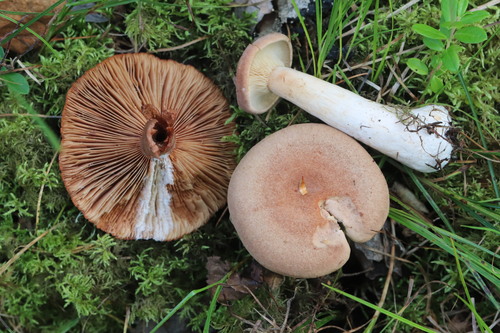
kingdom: Fungi
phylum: Basidiomycota
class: Agaricomycetes
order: Russulales
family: Russulaceae
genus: Lactarius
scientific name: Lactarius helvus
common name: Fenugreek milkcap
